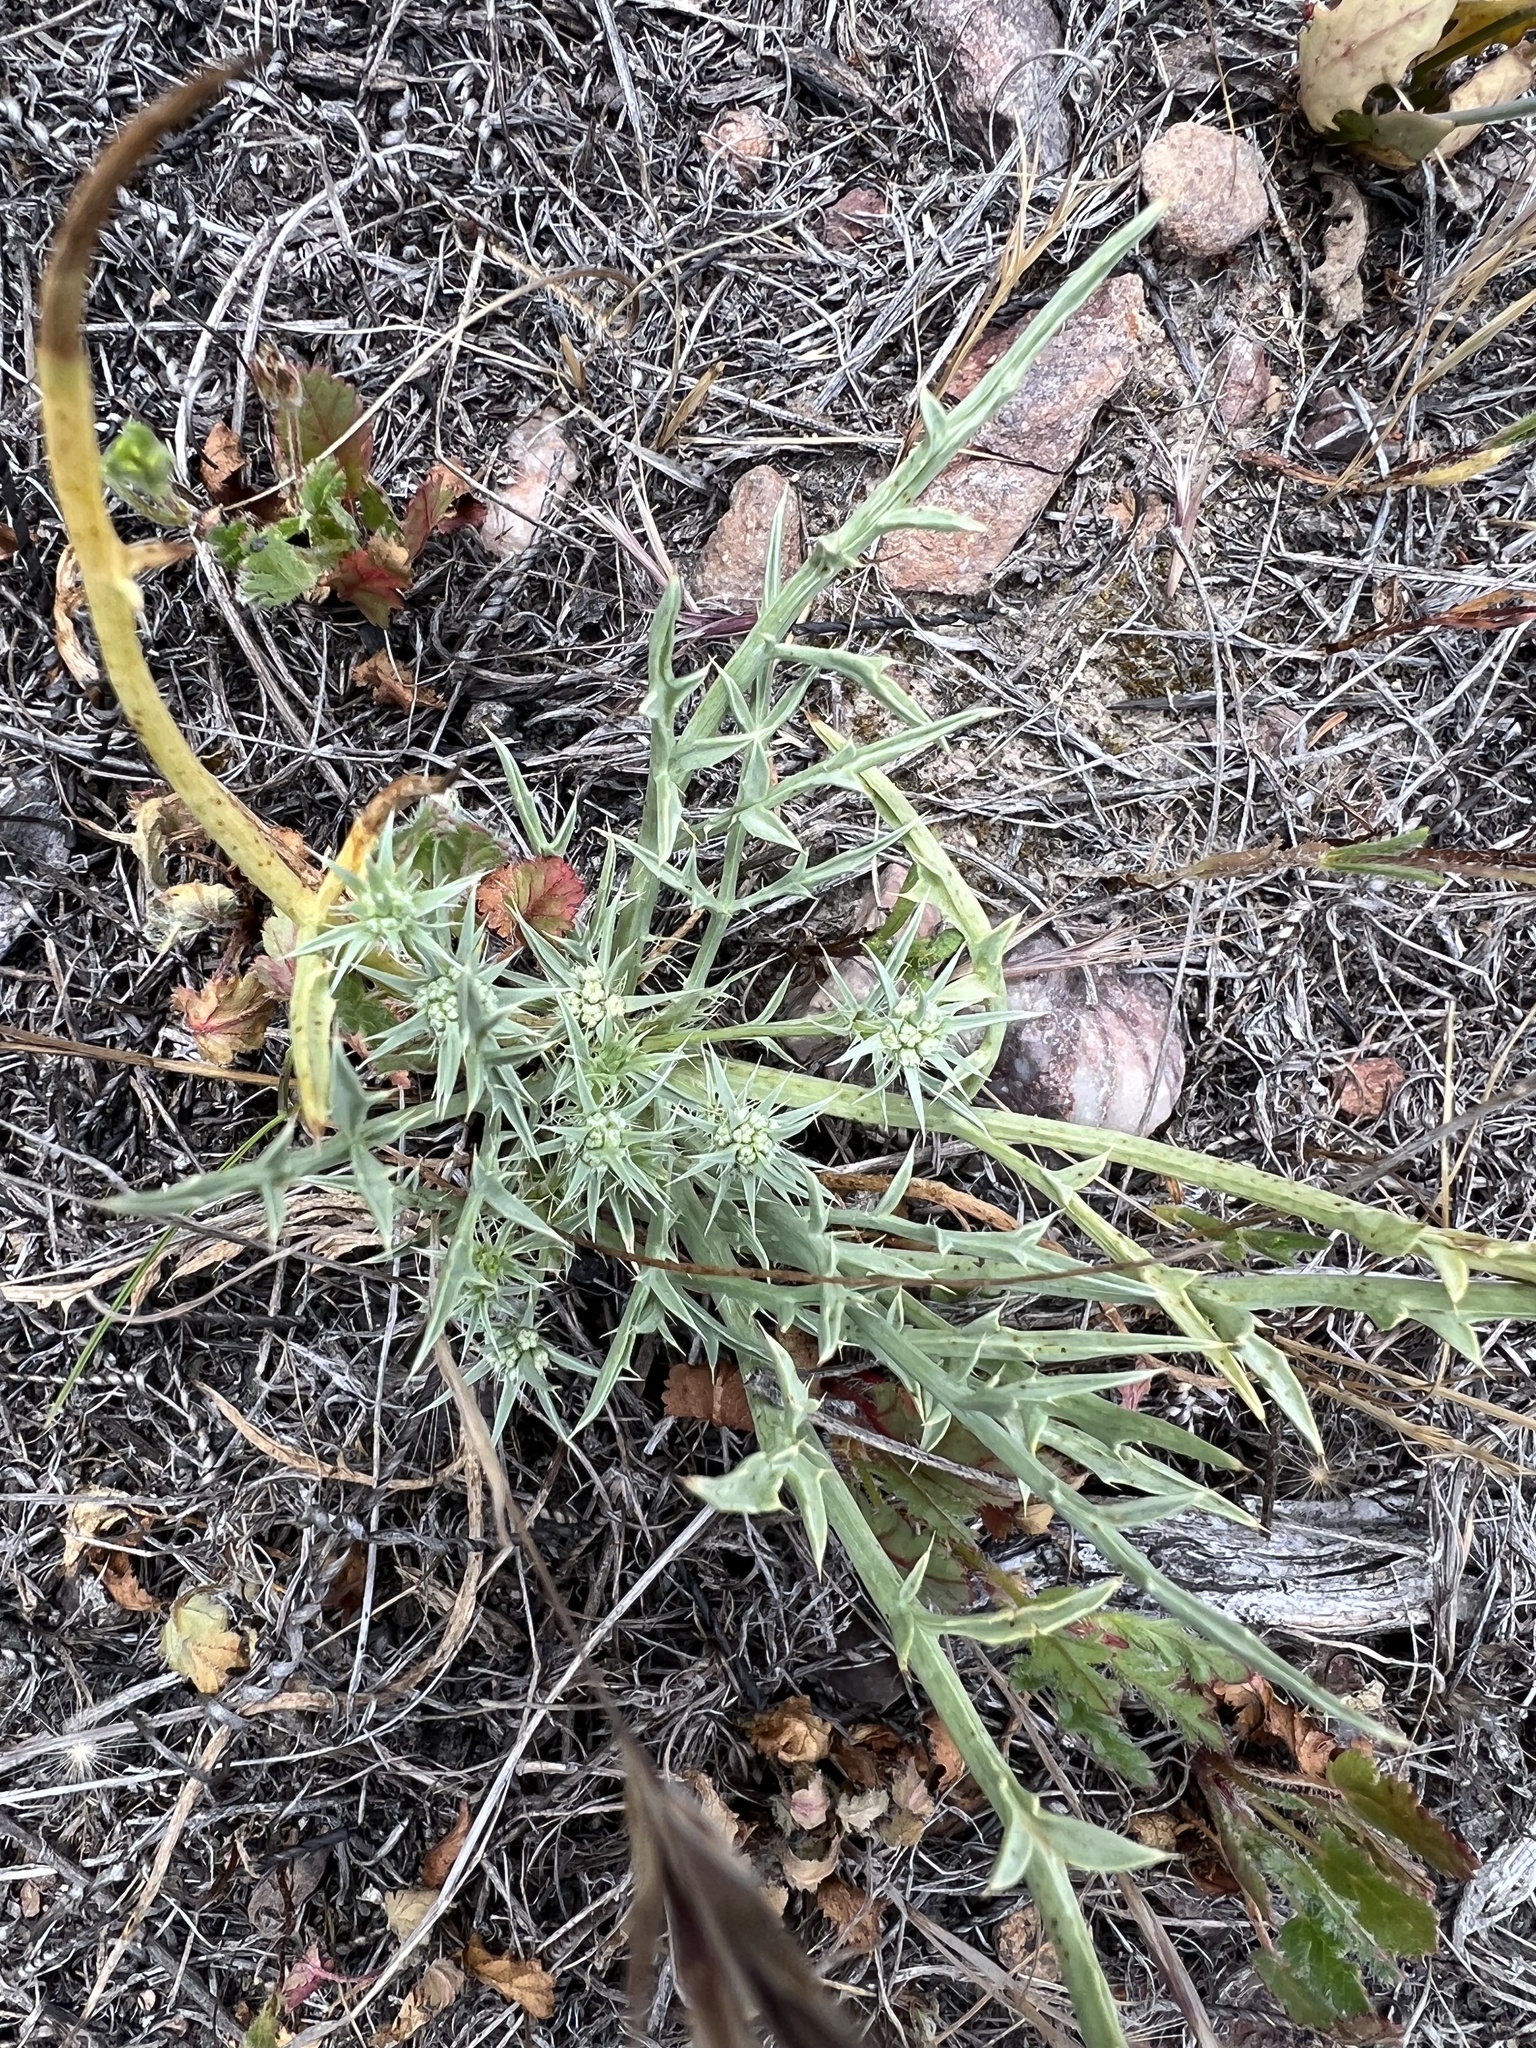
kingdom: Plantae
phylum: Tracheophyta
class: Magnoliopsida
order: Apiales
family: Apiaceae
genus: Eryngium
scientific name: Eryngium aristulatum
